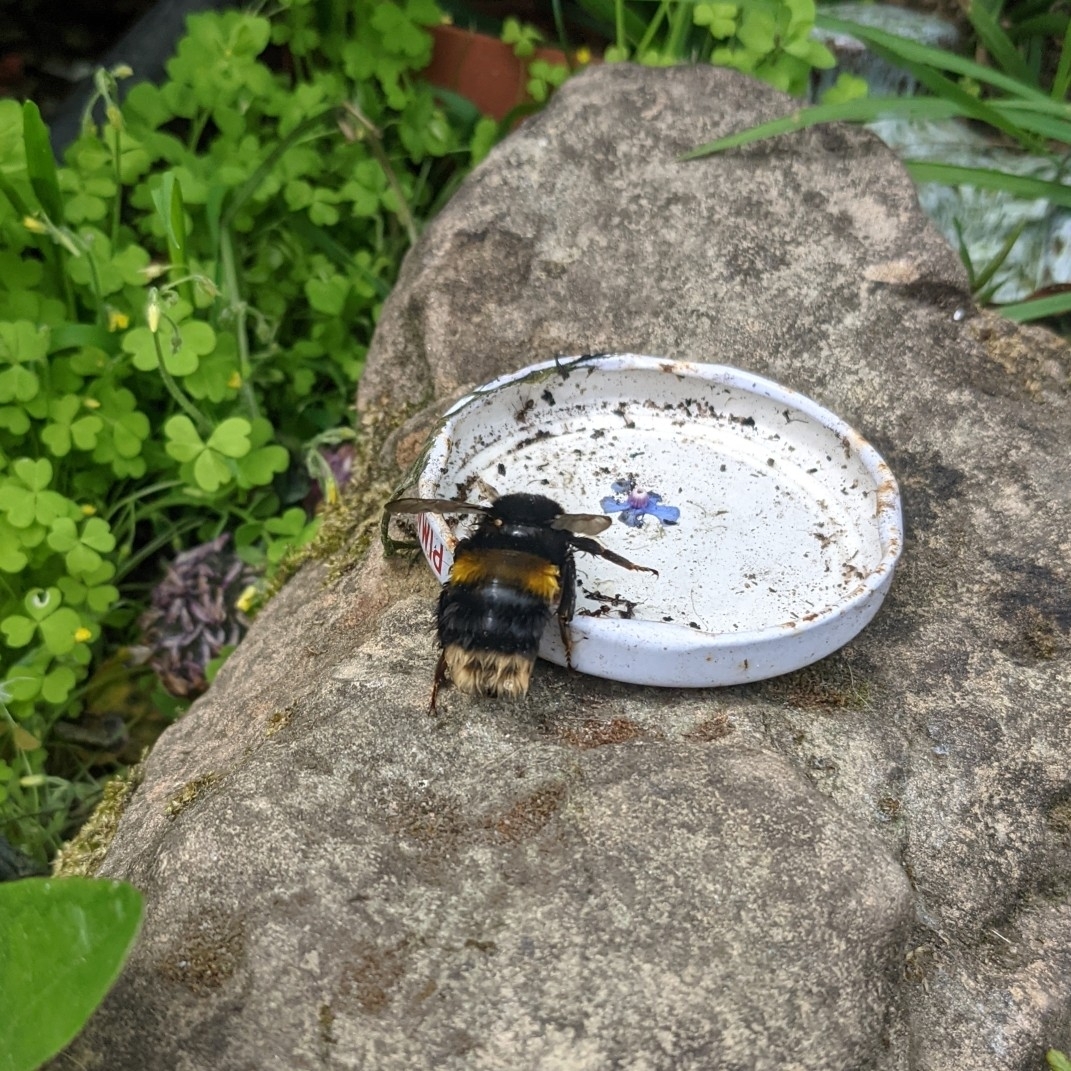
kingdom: Animalia
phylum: Arthropoda
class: Insecta
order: Hymenoptera
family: Apidae
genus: Bombus
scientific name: Bombus terrestris
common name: Buff-tailed bumblebee
